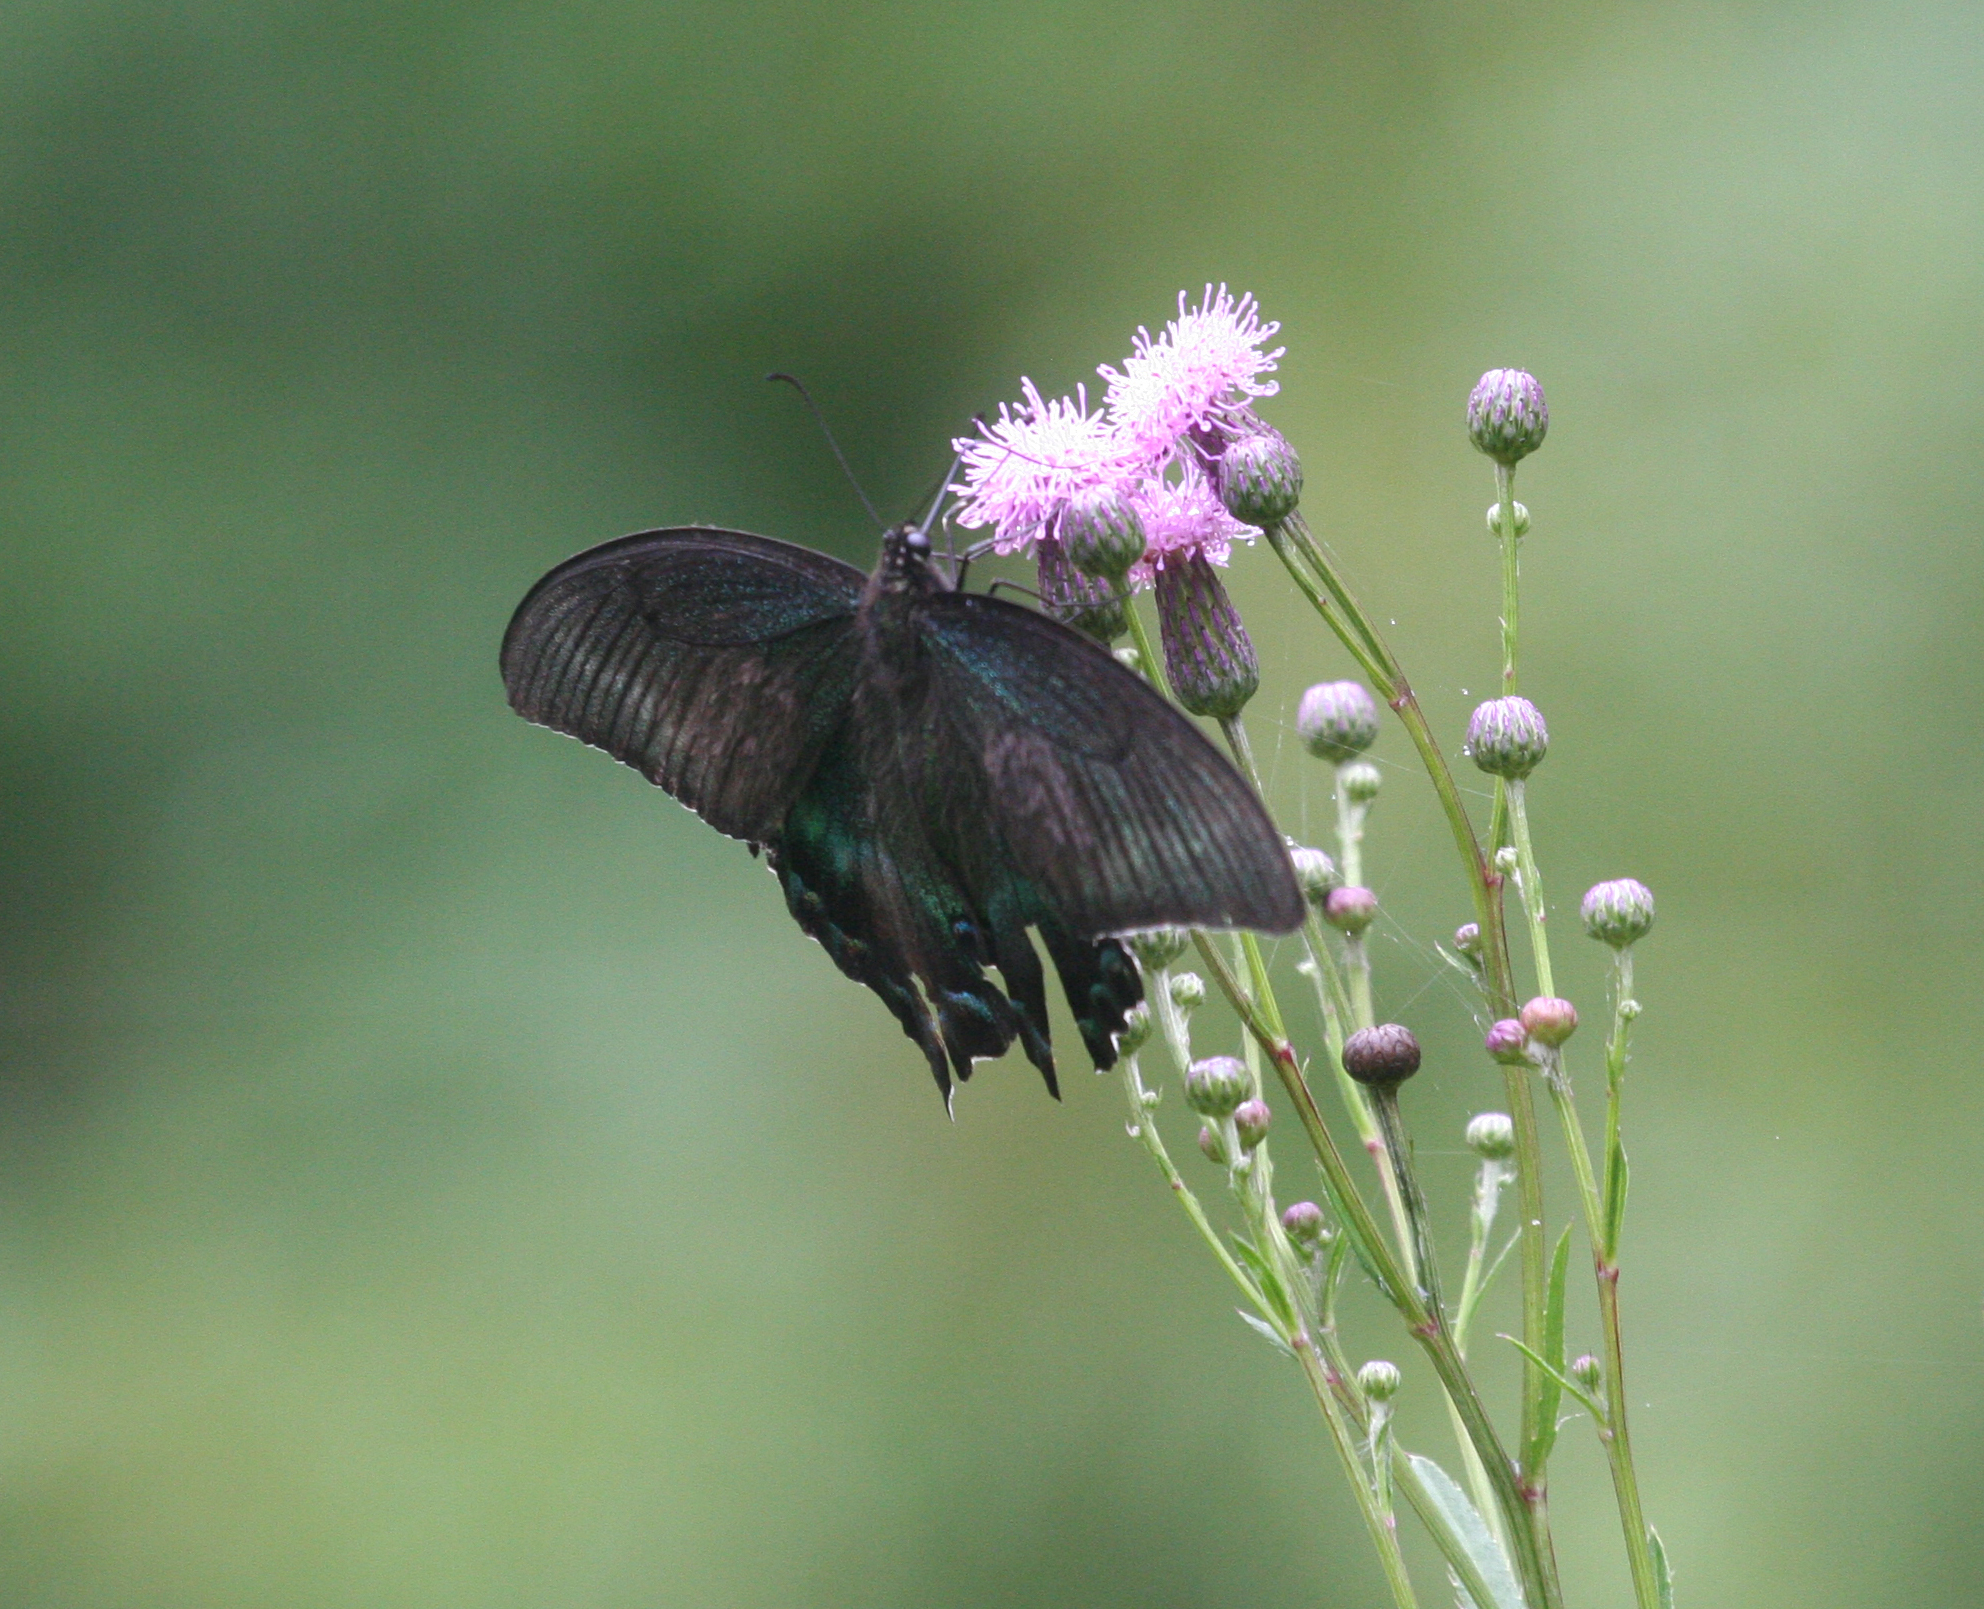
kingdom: Animalia
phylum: Arthropoda
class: Insecta
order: Lepidoptera
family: Papilionidae
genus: Papilio
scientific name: Papilio maackii
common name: Alpine black swallowtail
